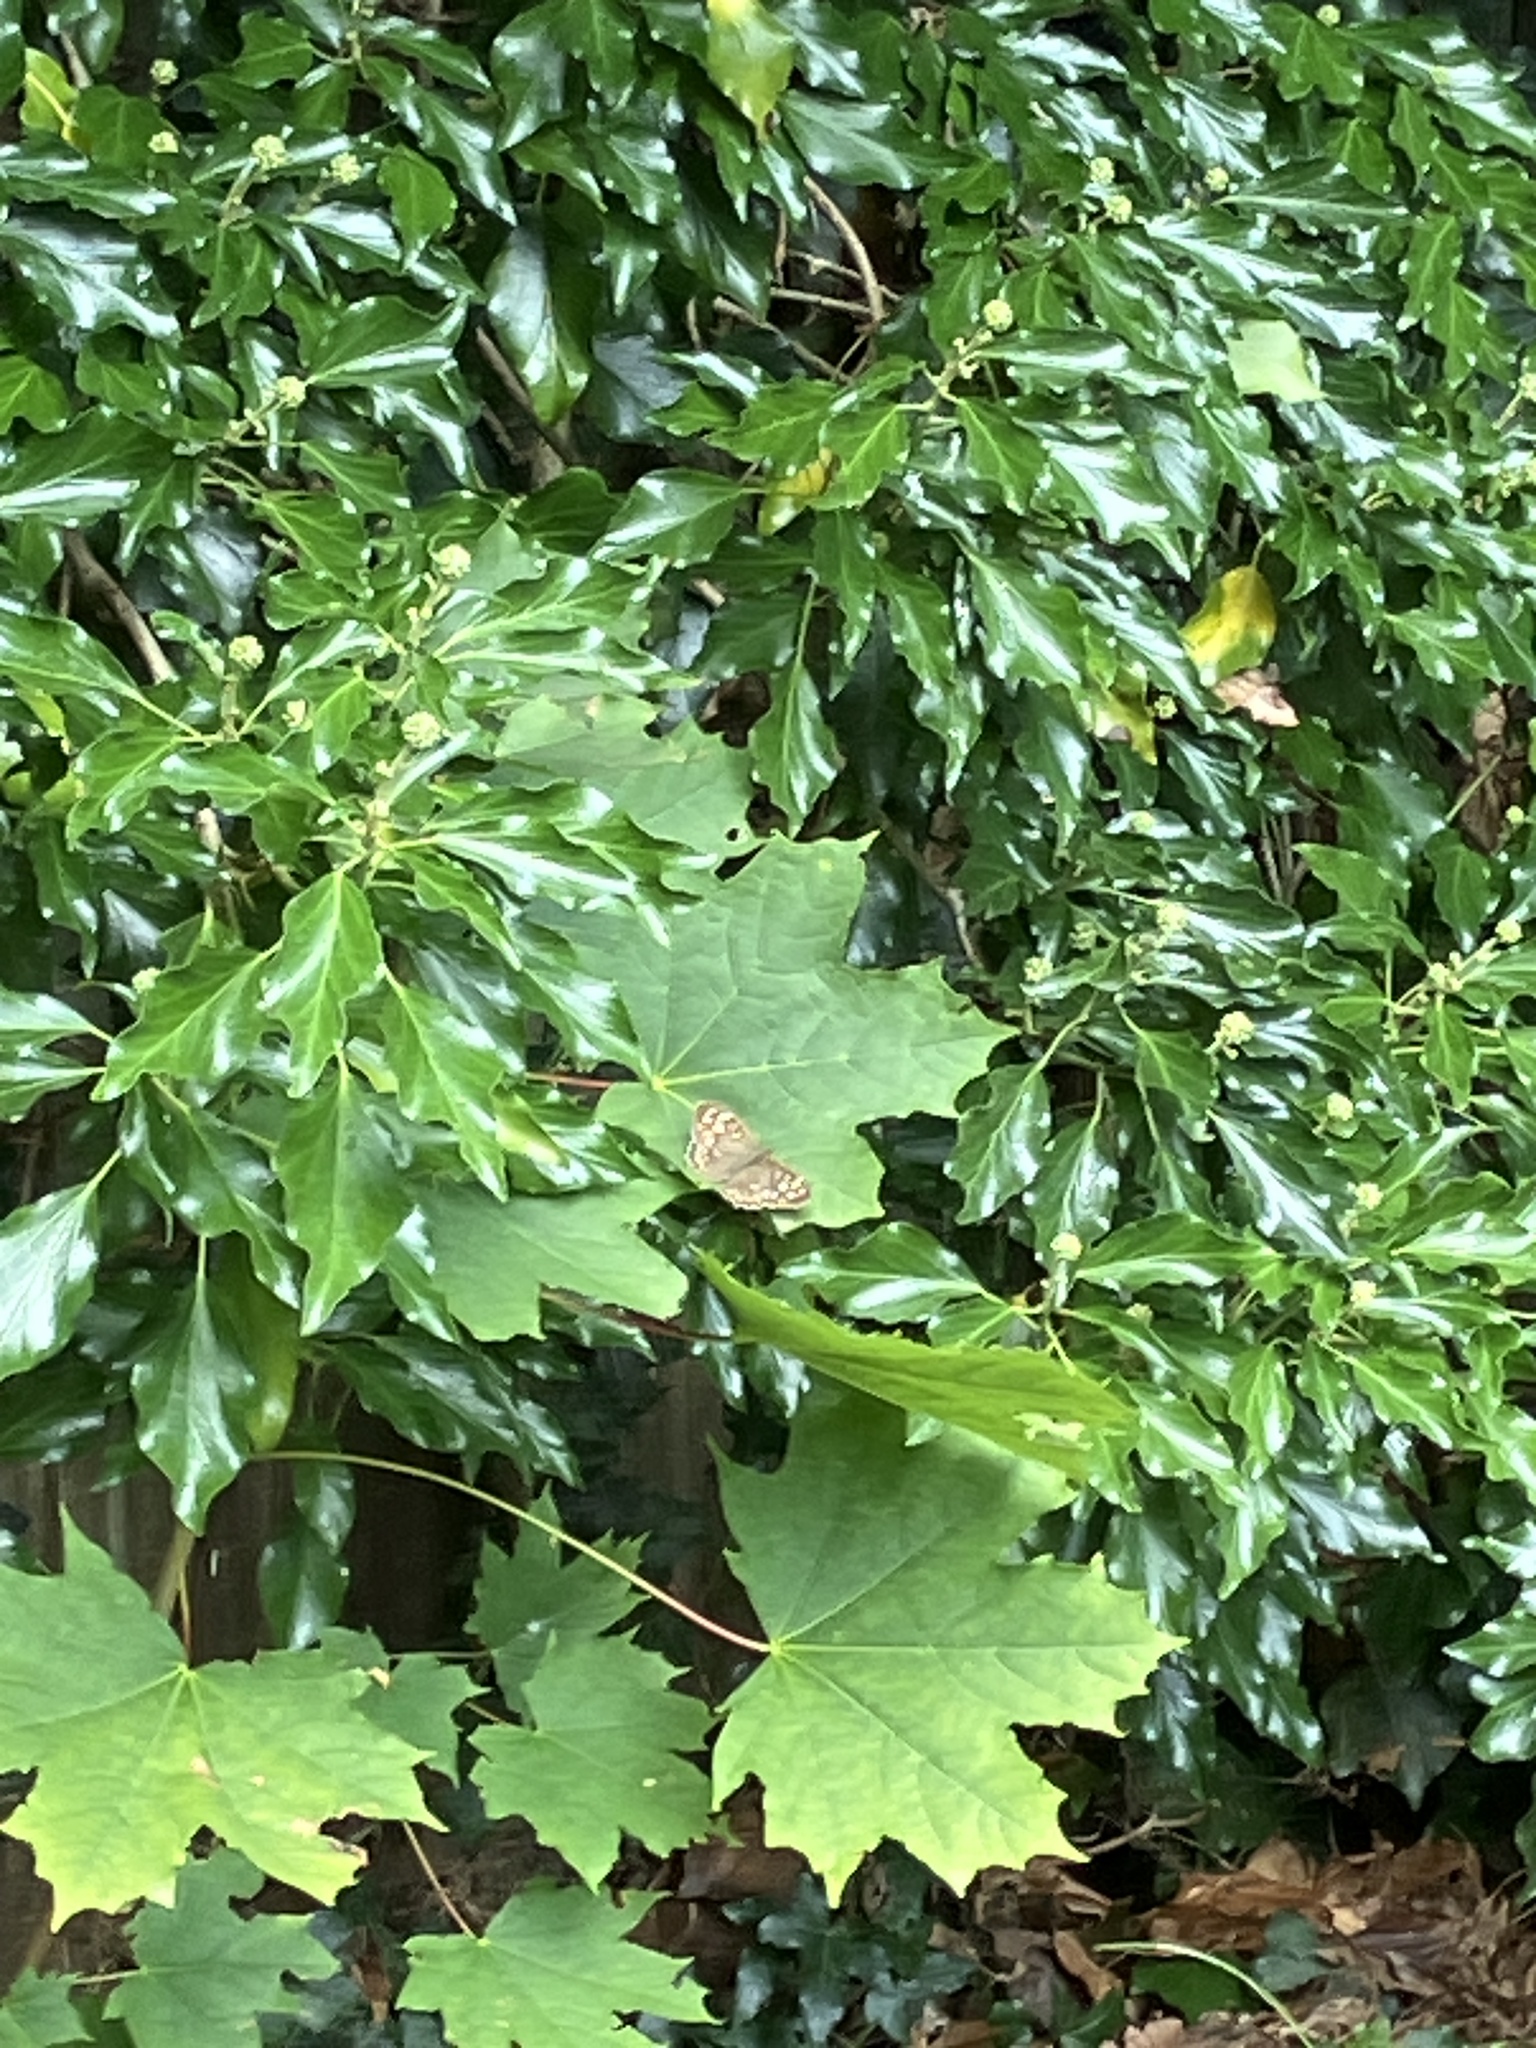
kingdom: Animalia
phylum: Arthropoda
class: Insecta
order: Lepidoptera
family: Nymphalidae
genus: Pararge
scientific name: Pararge aegeria
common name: Speckled wood
